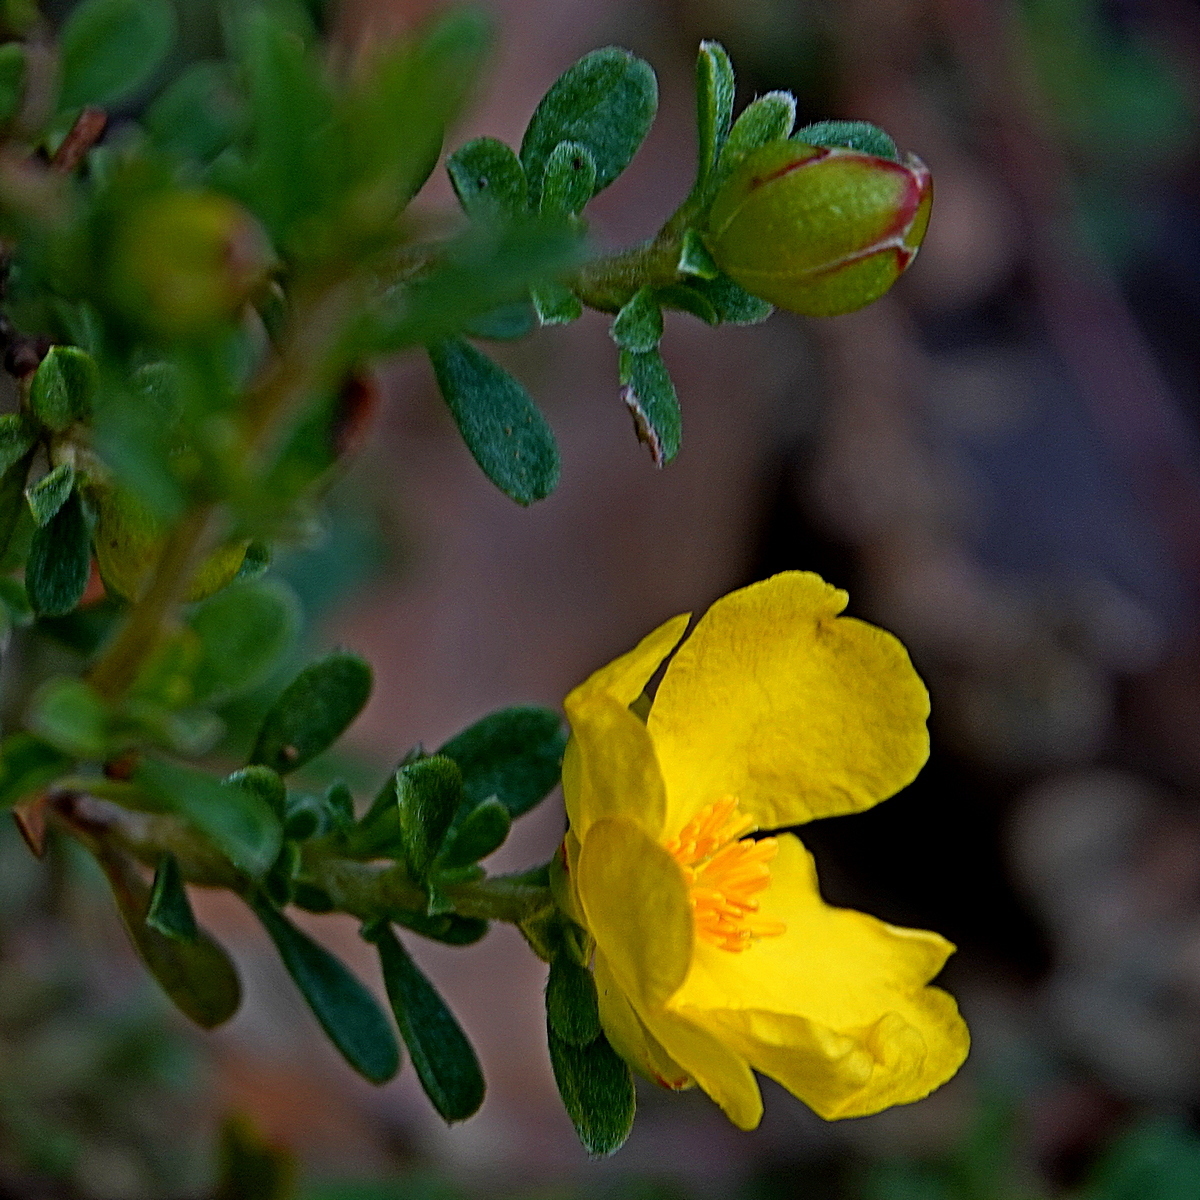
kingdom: Plantae
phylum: Tracheophyta
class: Magnoliopsida
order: Dilleniales
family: Dilleniaceae
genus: Hibbertia
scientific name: Hibbertia diffusa
